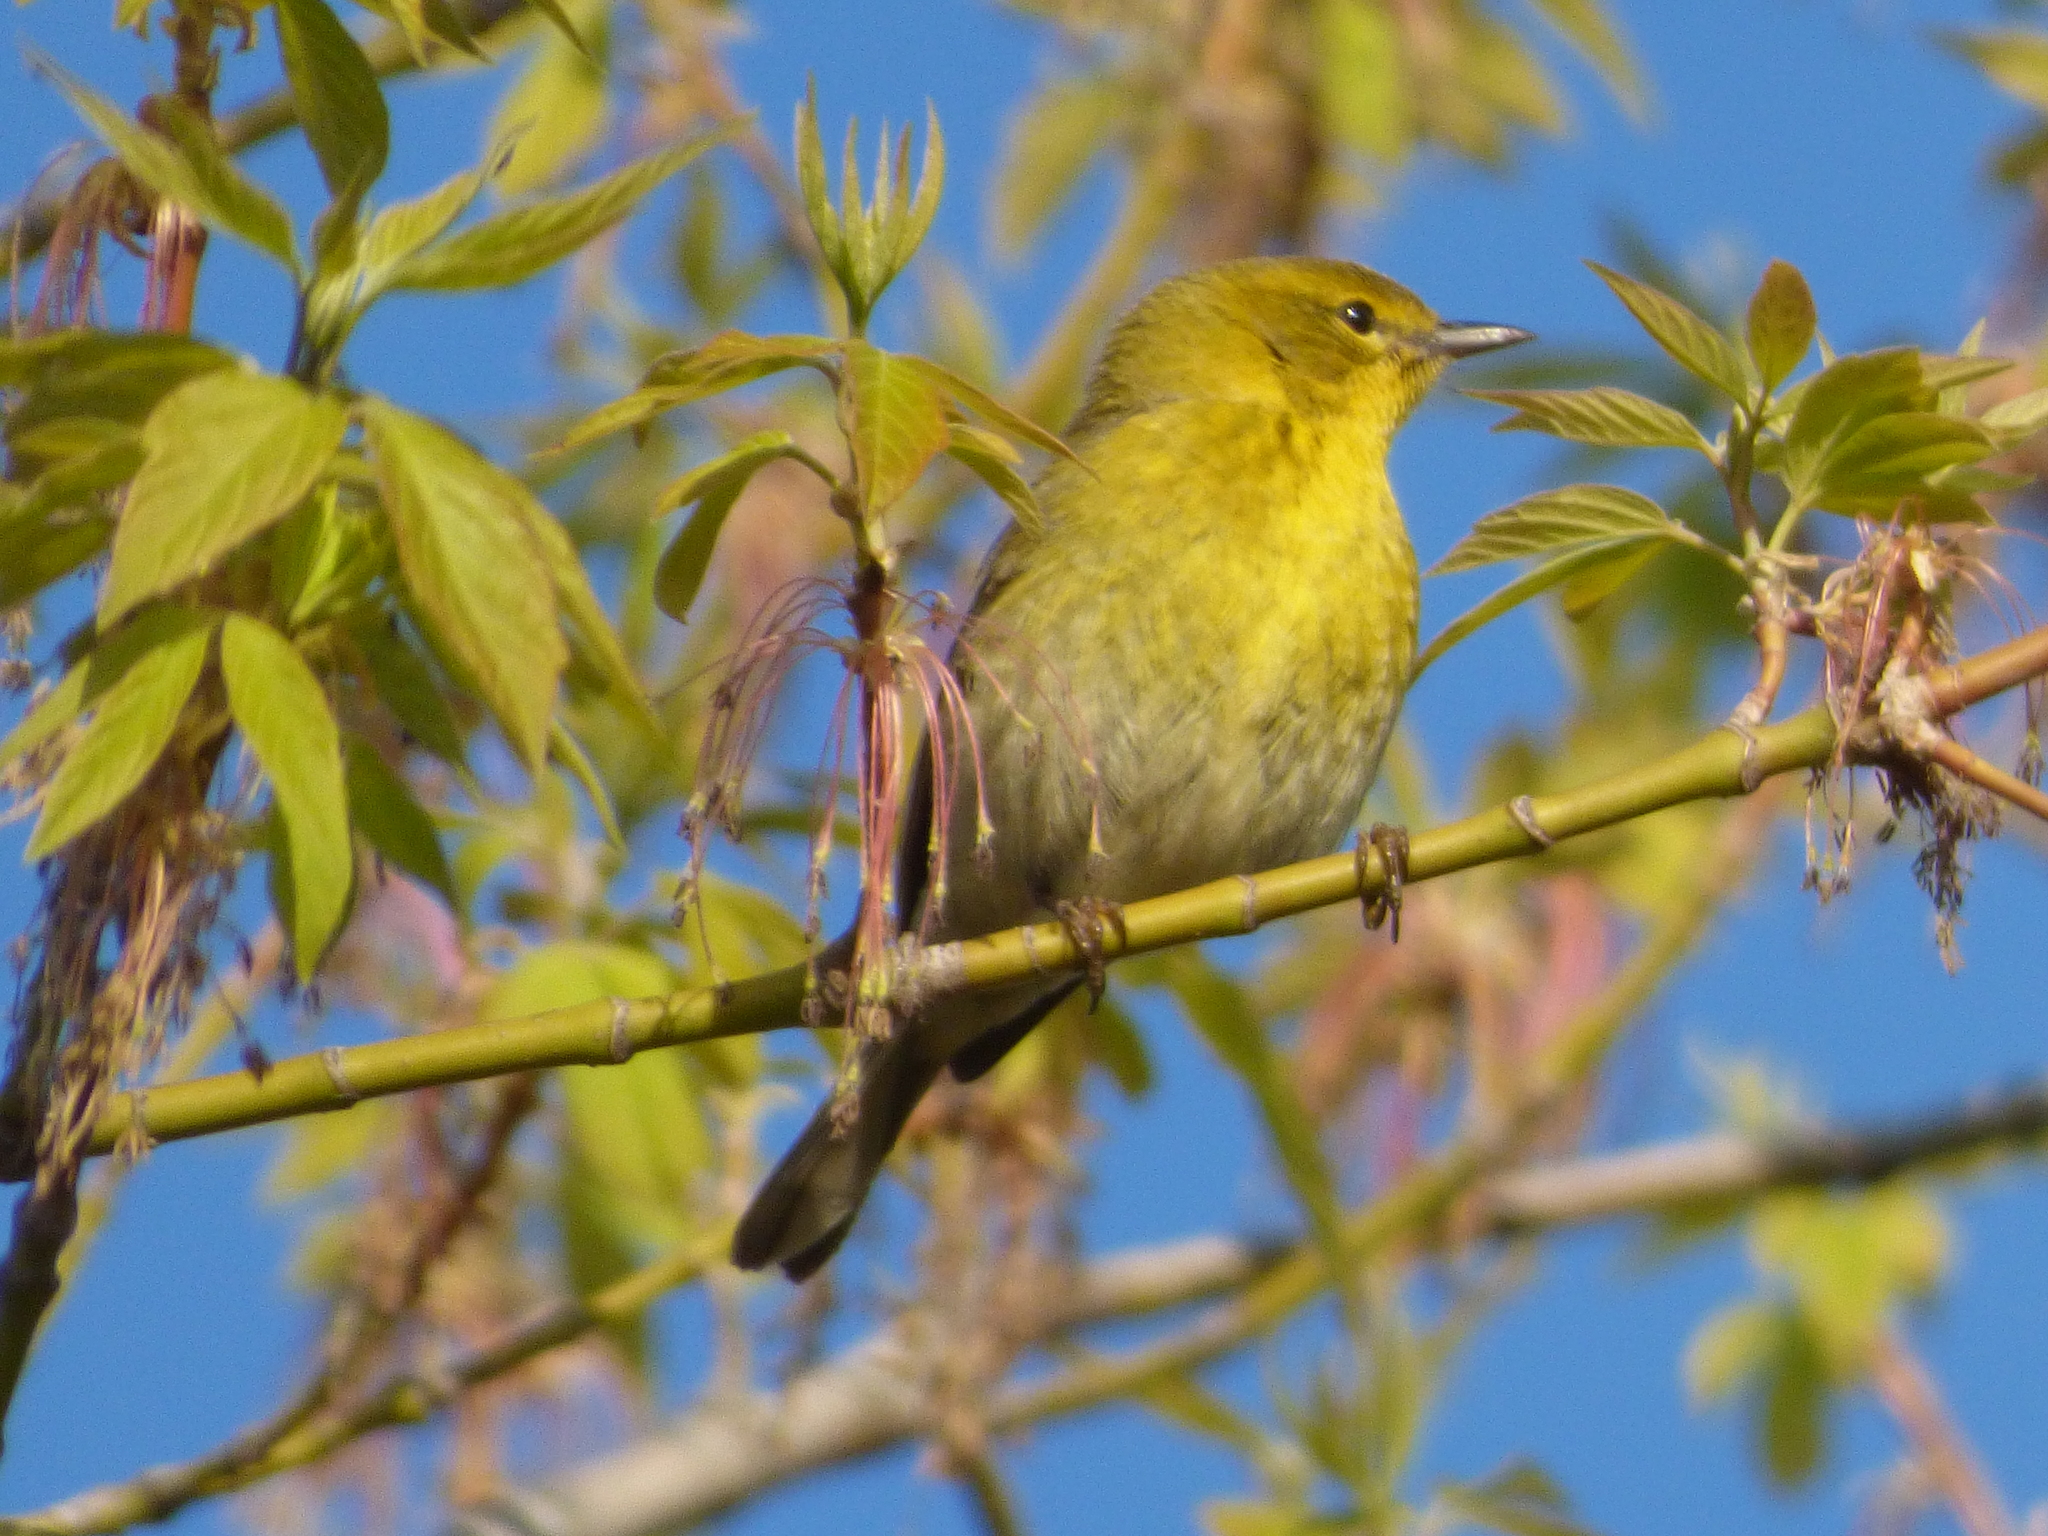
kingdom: Animalia
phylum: Chordata
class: Aves
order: Passeriformes
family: Parulidae
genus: Setophaga
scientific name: Setophaga pinus
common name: Pine warbler
